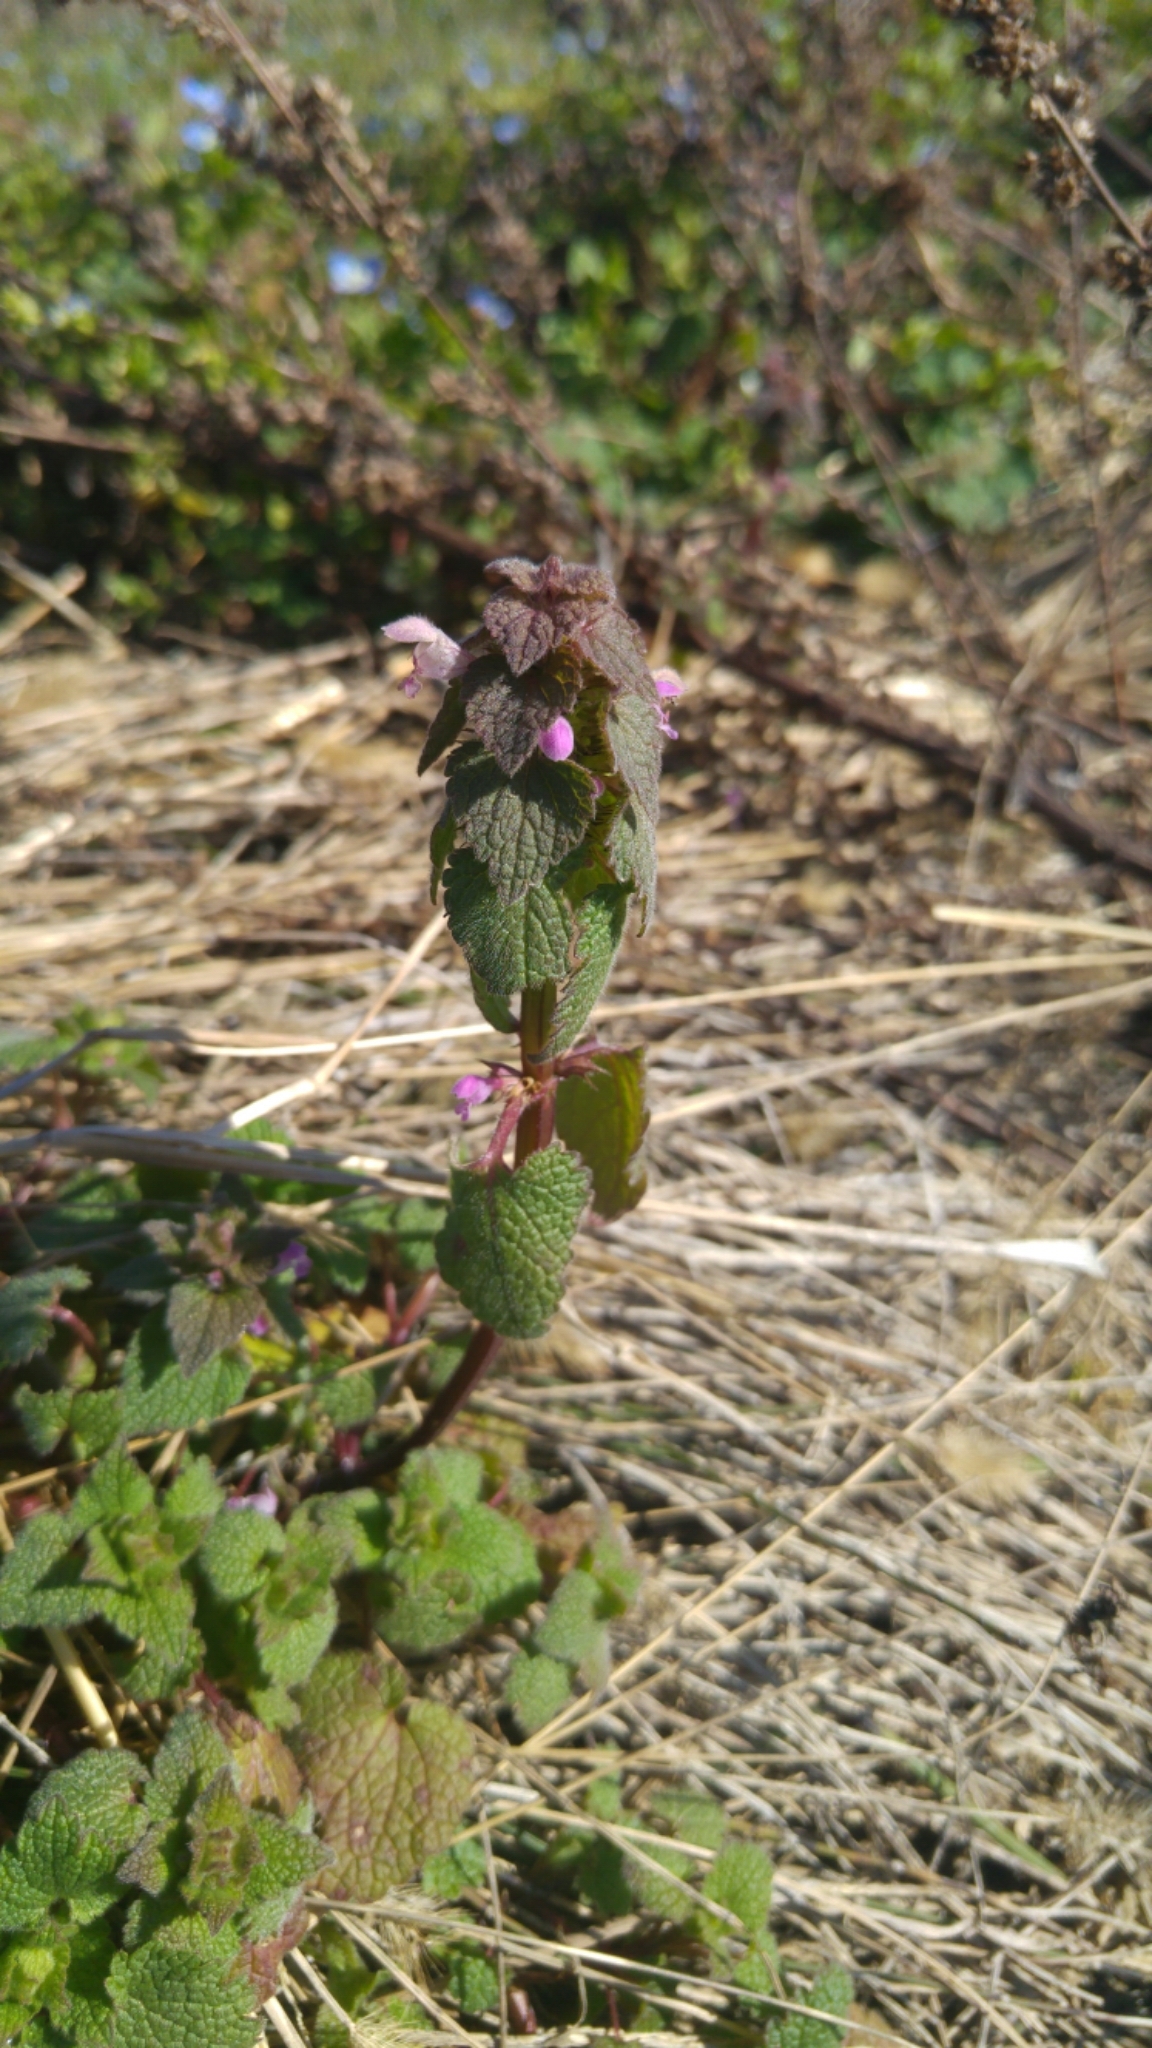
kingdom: Plantae
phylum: Tracheophyta
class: Magnoliopsida
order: Lamiales
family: Lamiaceae
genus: Lamium
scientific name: Lamium purpureum
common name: Red dead-nettle
